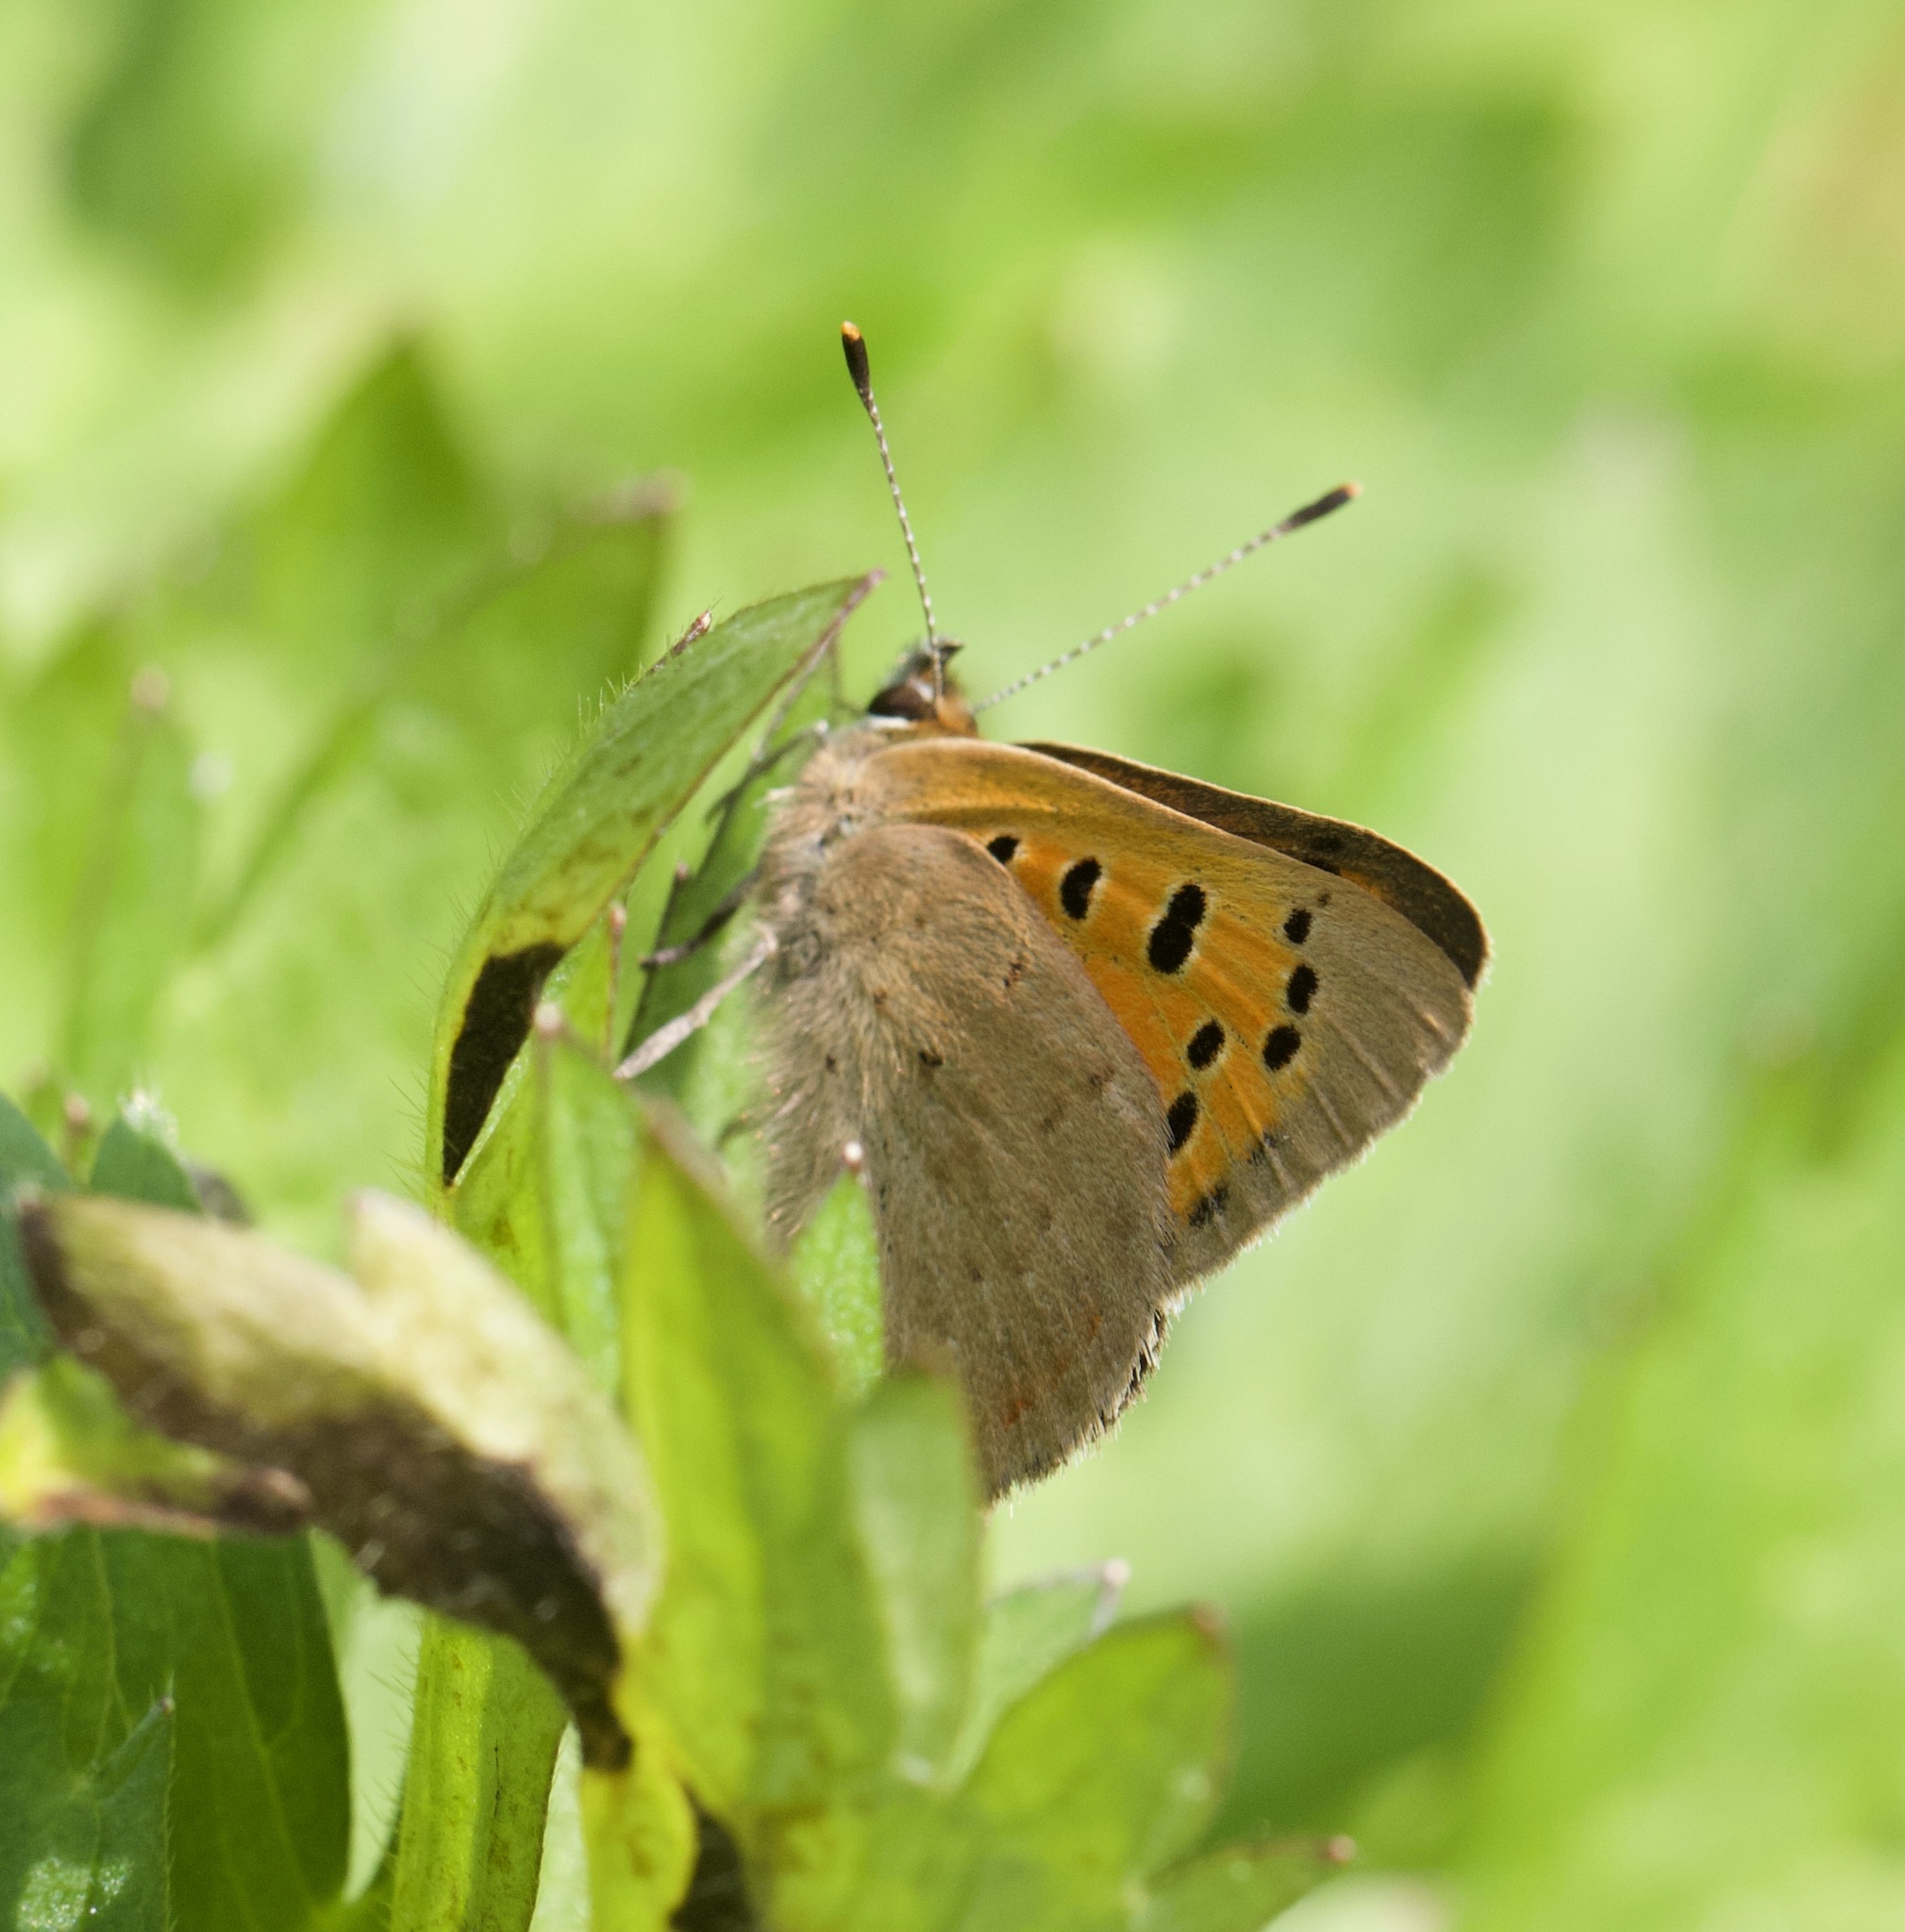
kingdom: Animalia
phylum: Arthropoda
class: Insecta
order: Lepidoptera
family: Lycaenidae
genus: Lycaena
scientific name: Lycaena phlaeas
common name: Small copper
